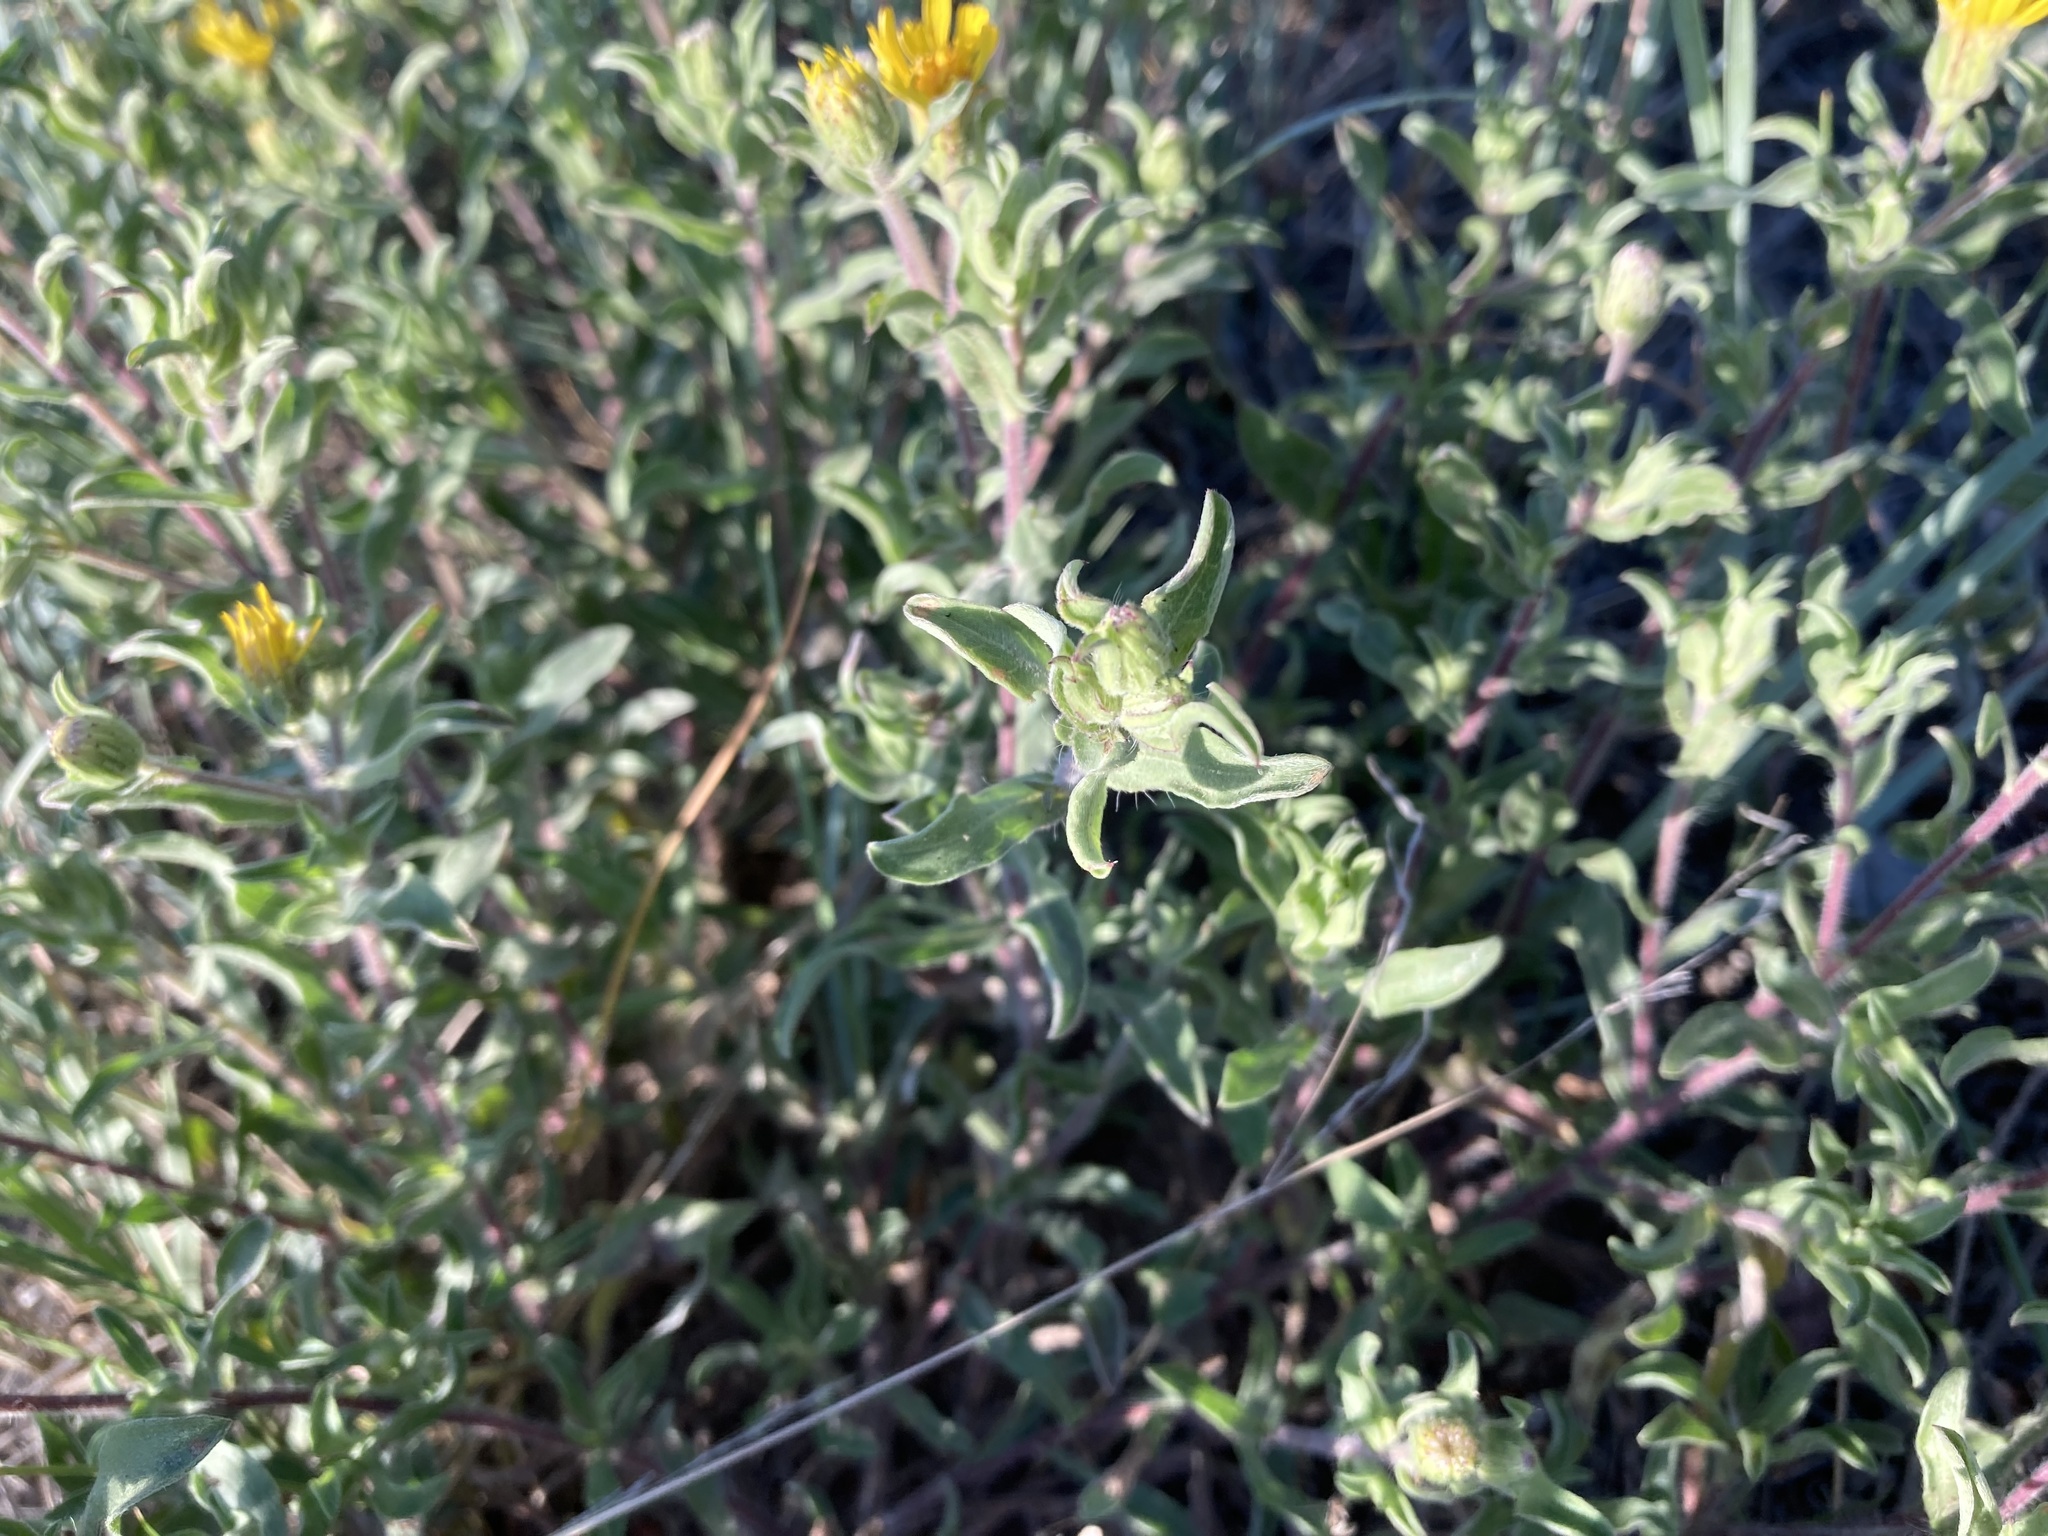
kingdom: Plantae
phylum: Tracheophyta
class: Magnoliopsida
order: Asterales
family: Asteraceae
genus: Heterotheca
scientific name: Heterotheca villosa
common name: Hairy false goldenaster
